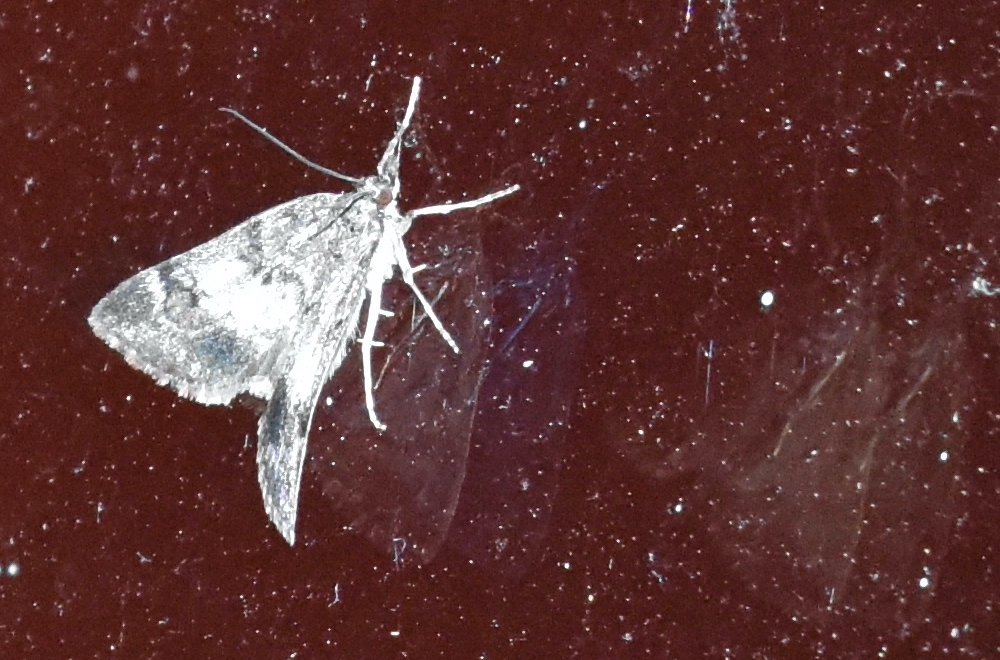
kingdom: Animalia
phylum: Arthropoda
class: Insecta
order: Lepidoptera
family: Crambidae
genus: Gesneria
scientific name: Gesneria centuriella
